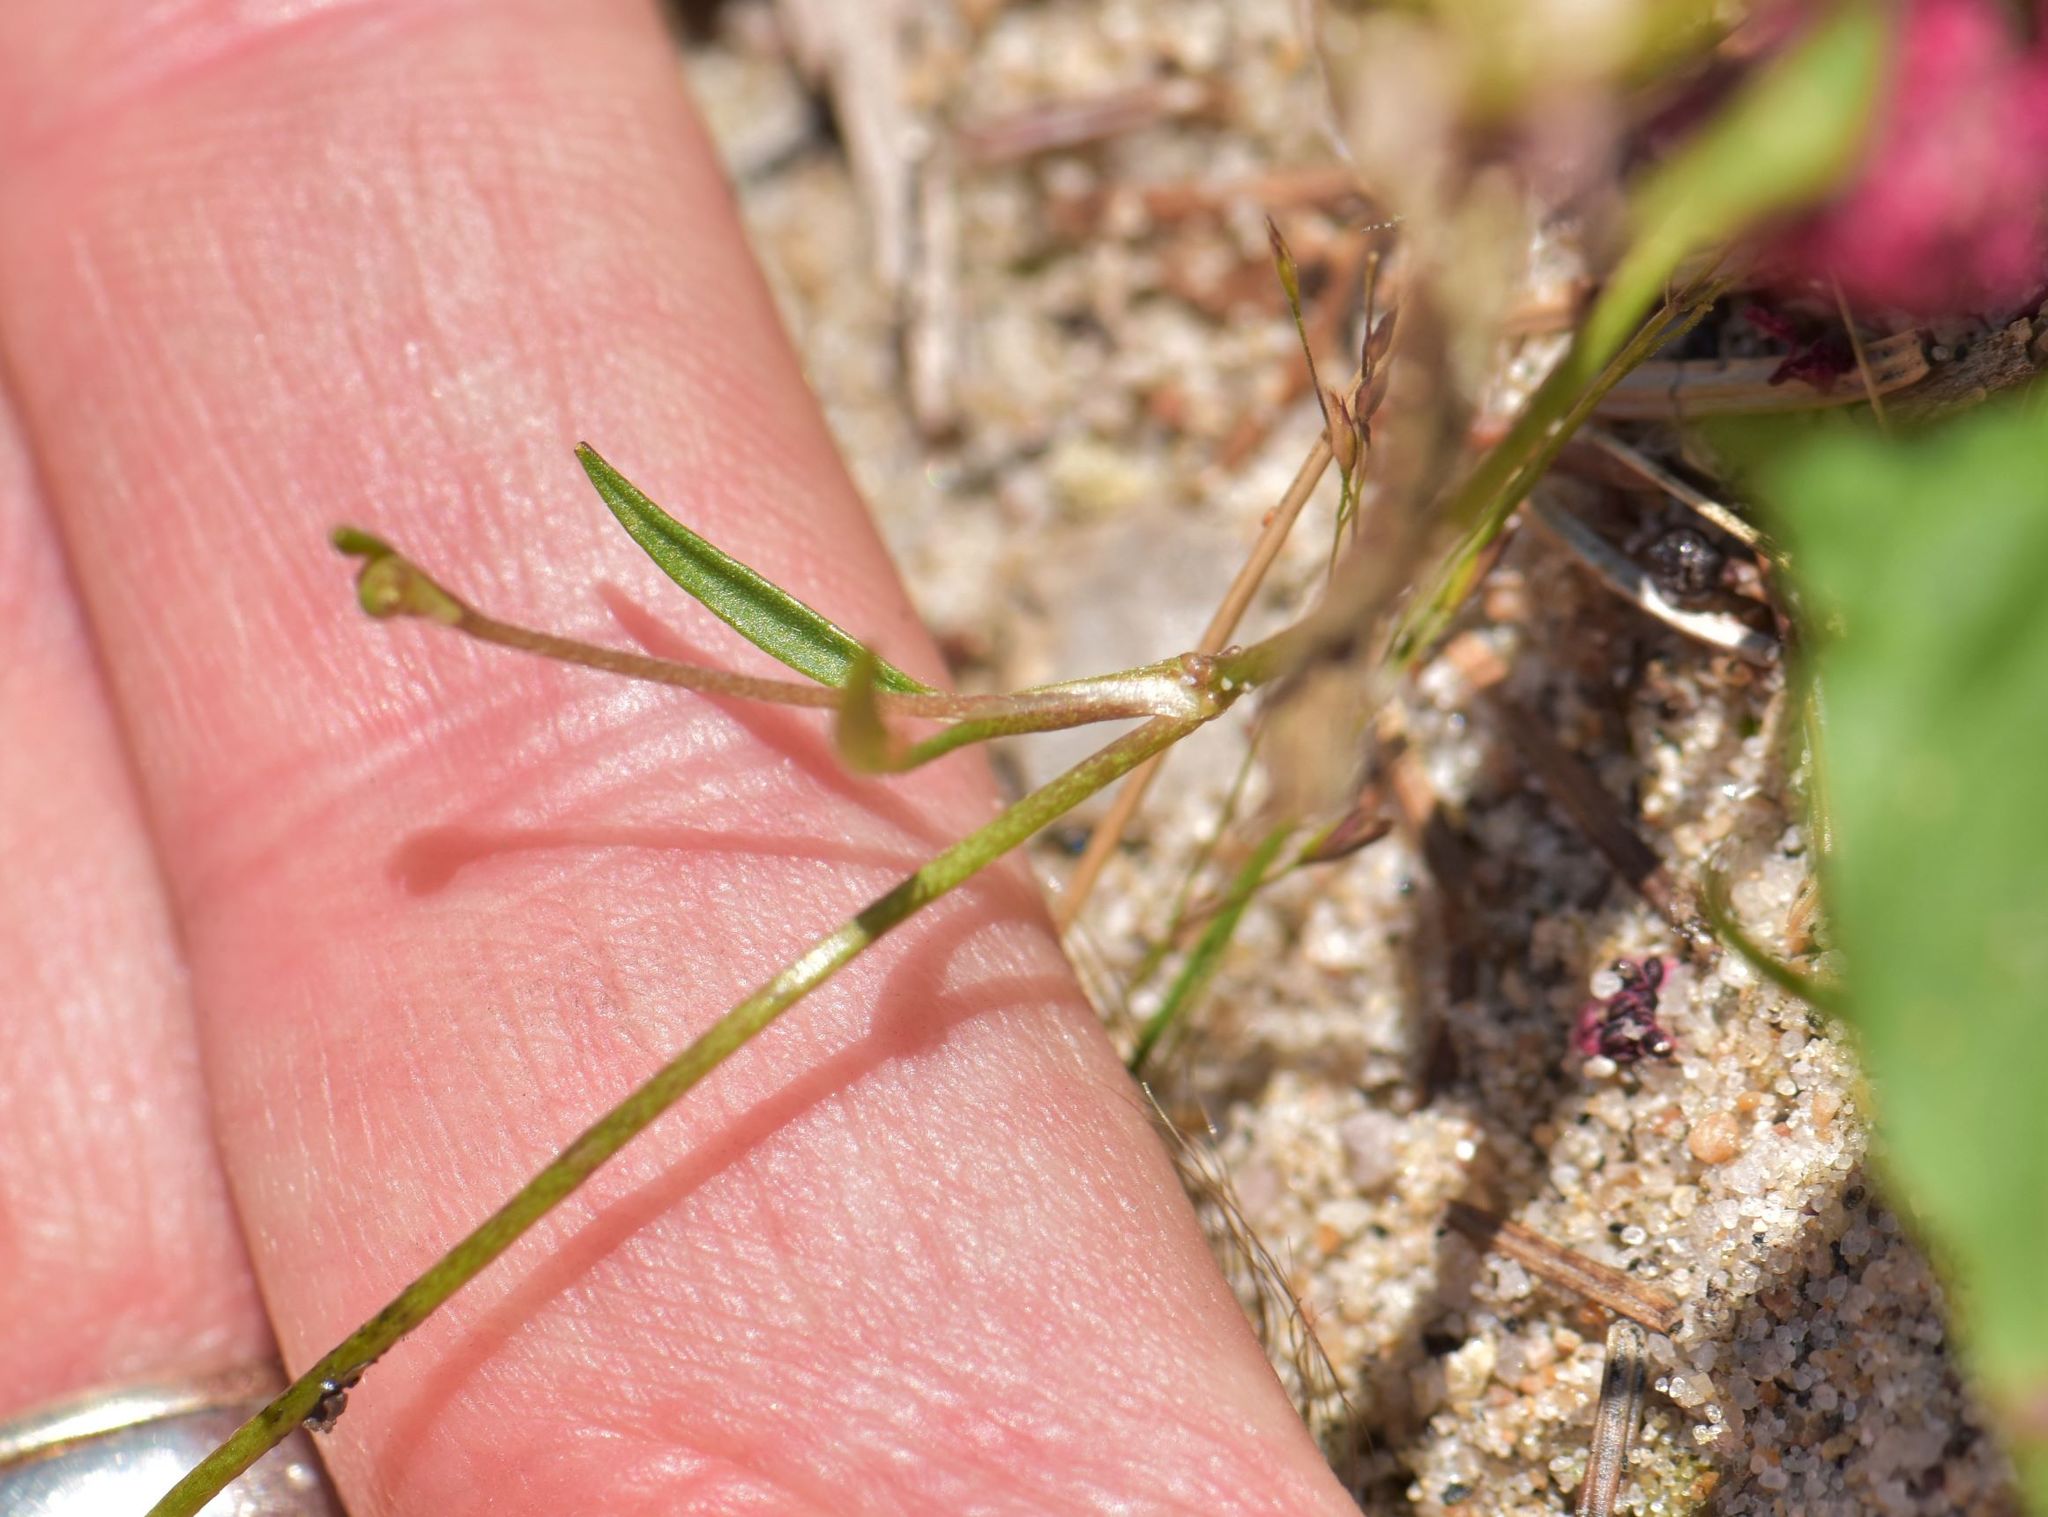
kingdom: Plantae
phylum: Tracheophyta
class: Magnoliopsida
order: Ranunculales
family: Ranunculaceae
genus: Ranunculus
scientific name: Ranunculus flammula
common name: Lesser spearwort
